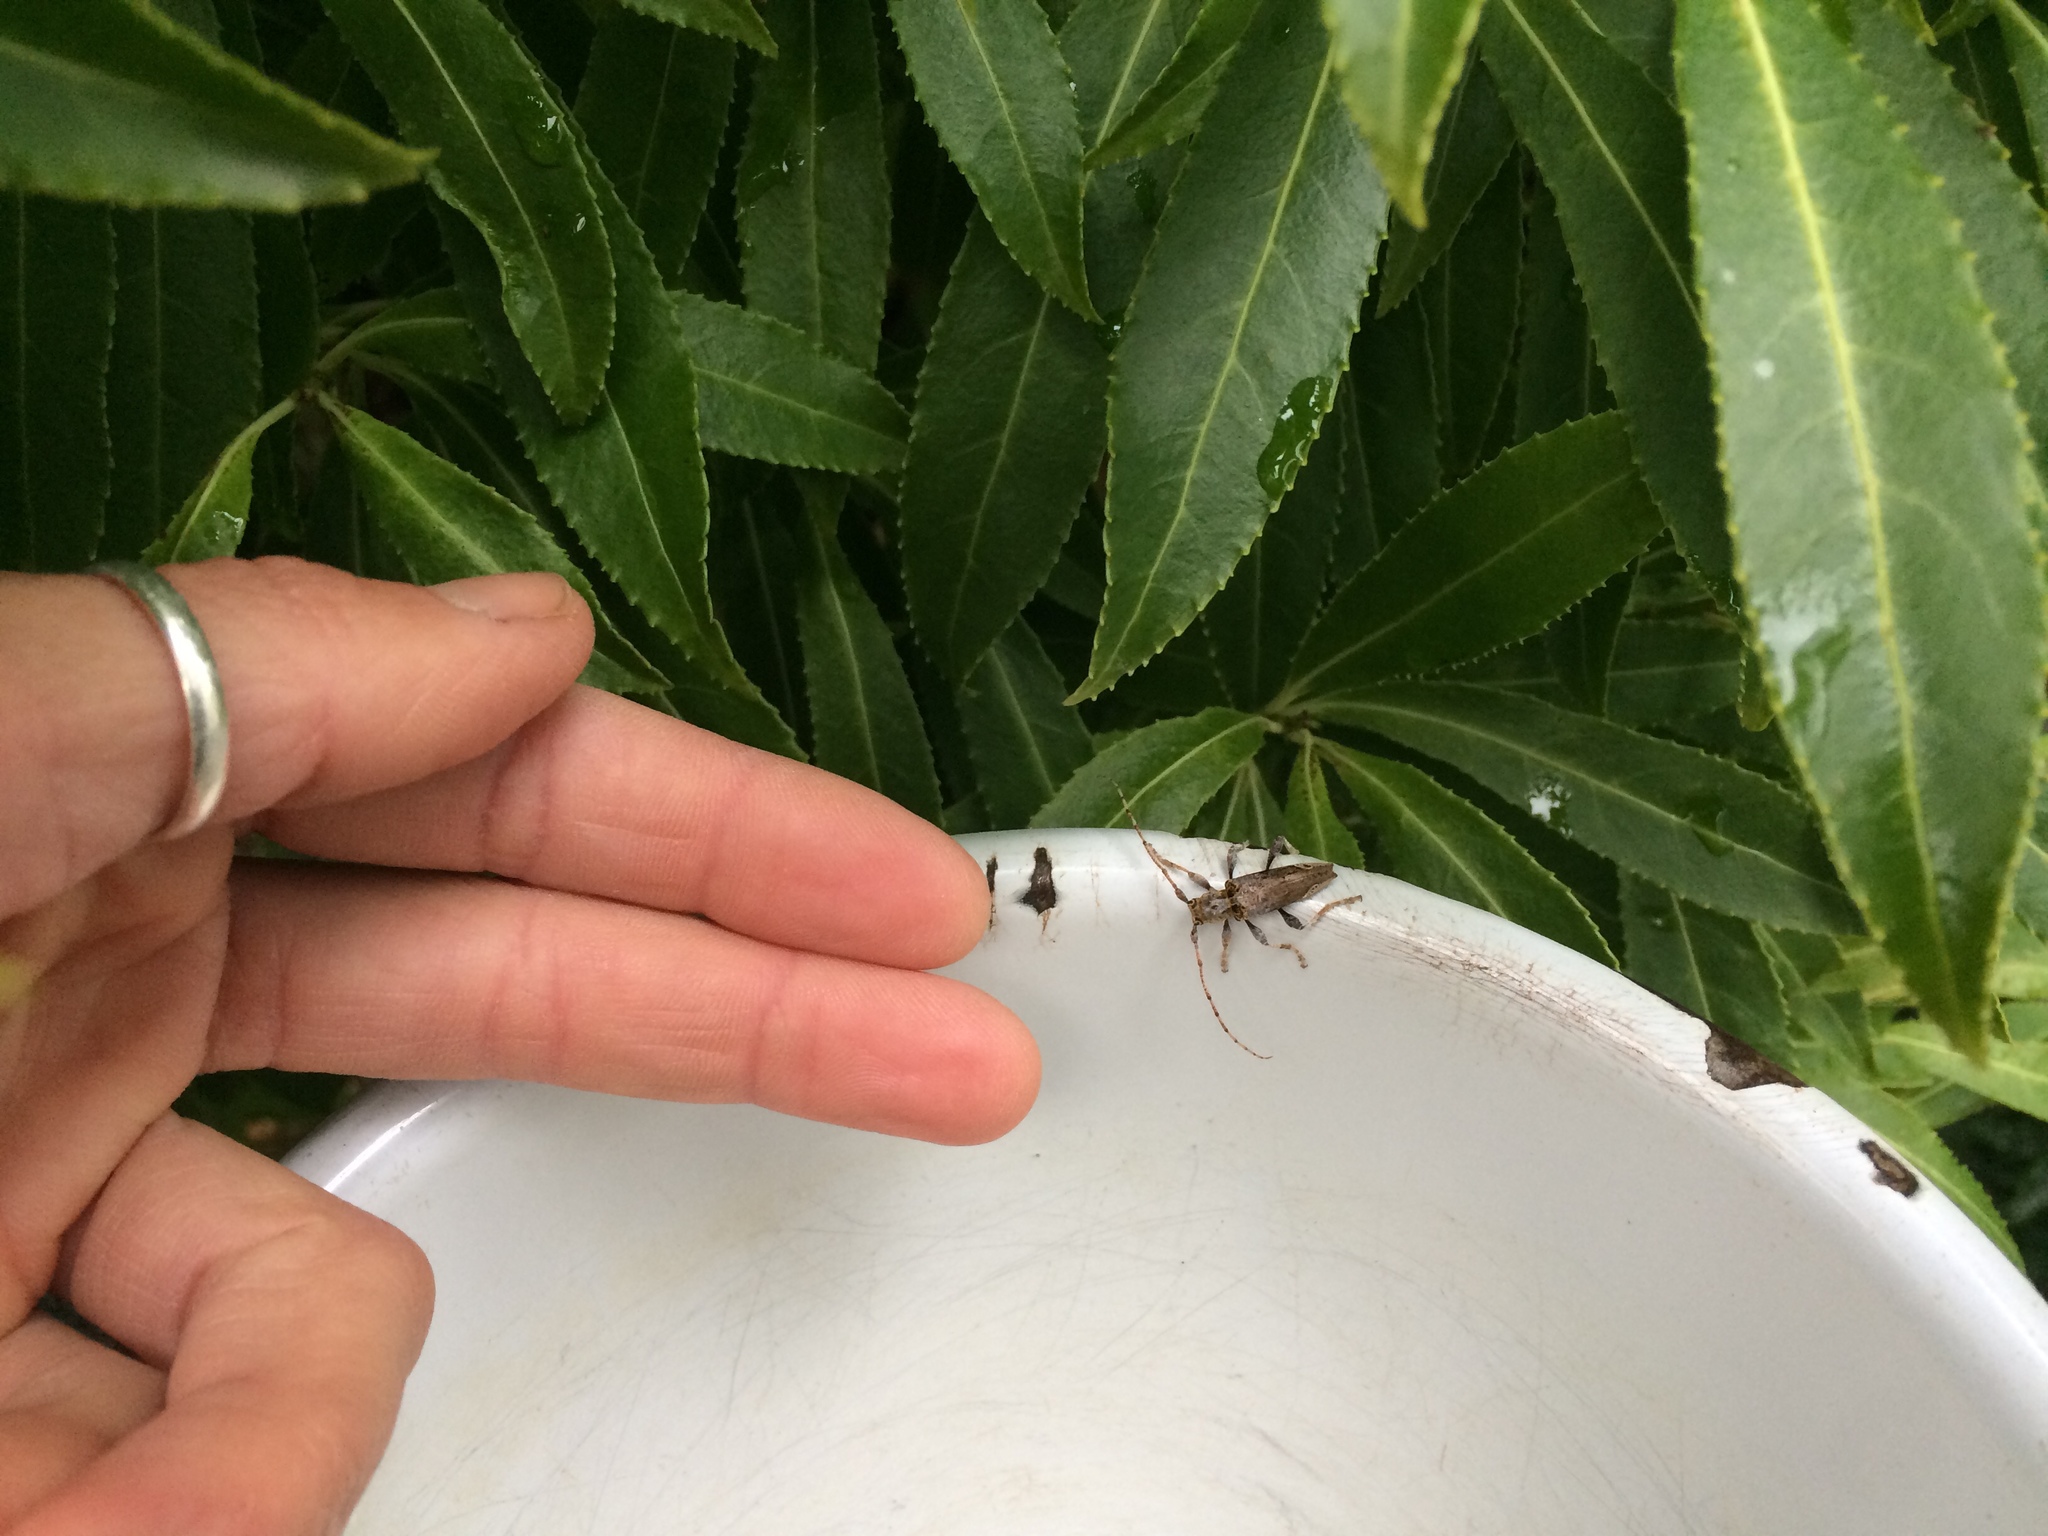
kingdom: Animalia
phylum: Arthropoda
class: Insecta
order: Coleoptera
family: Cerambycidae
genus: Tetrorea
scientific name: Tetrorea cilipes
